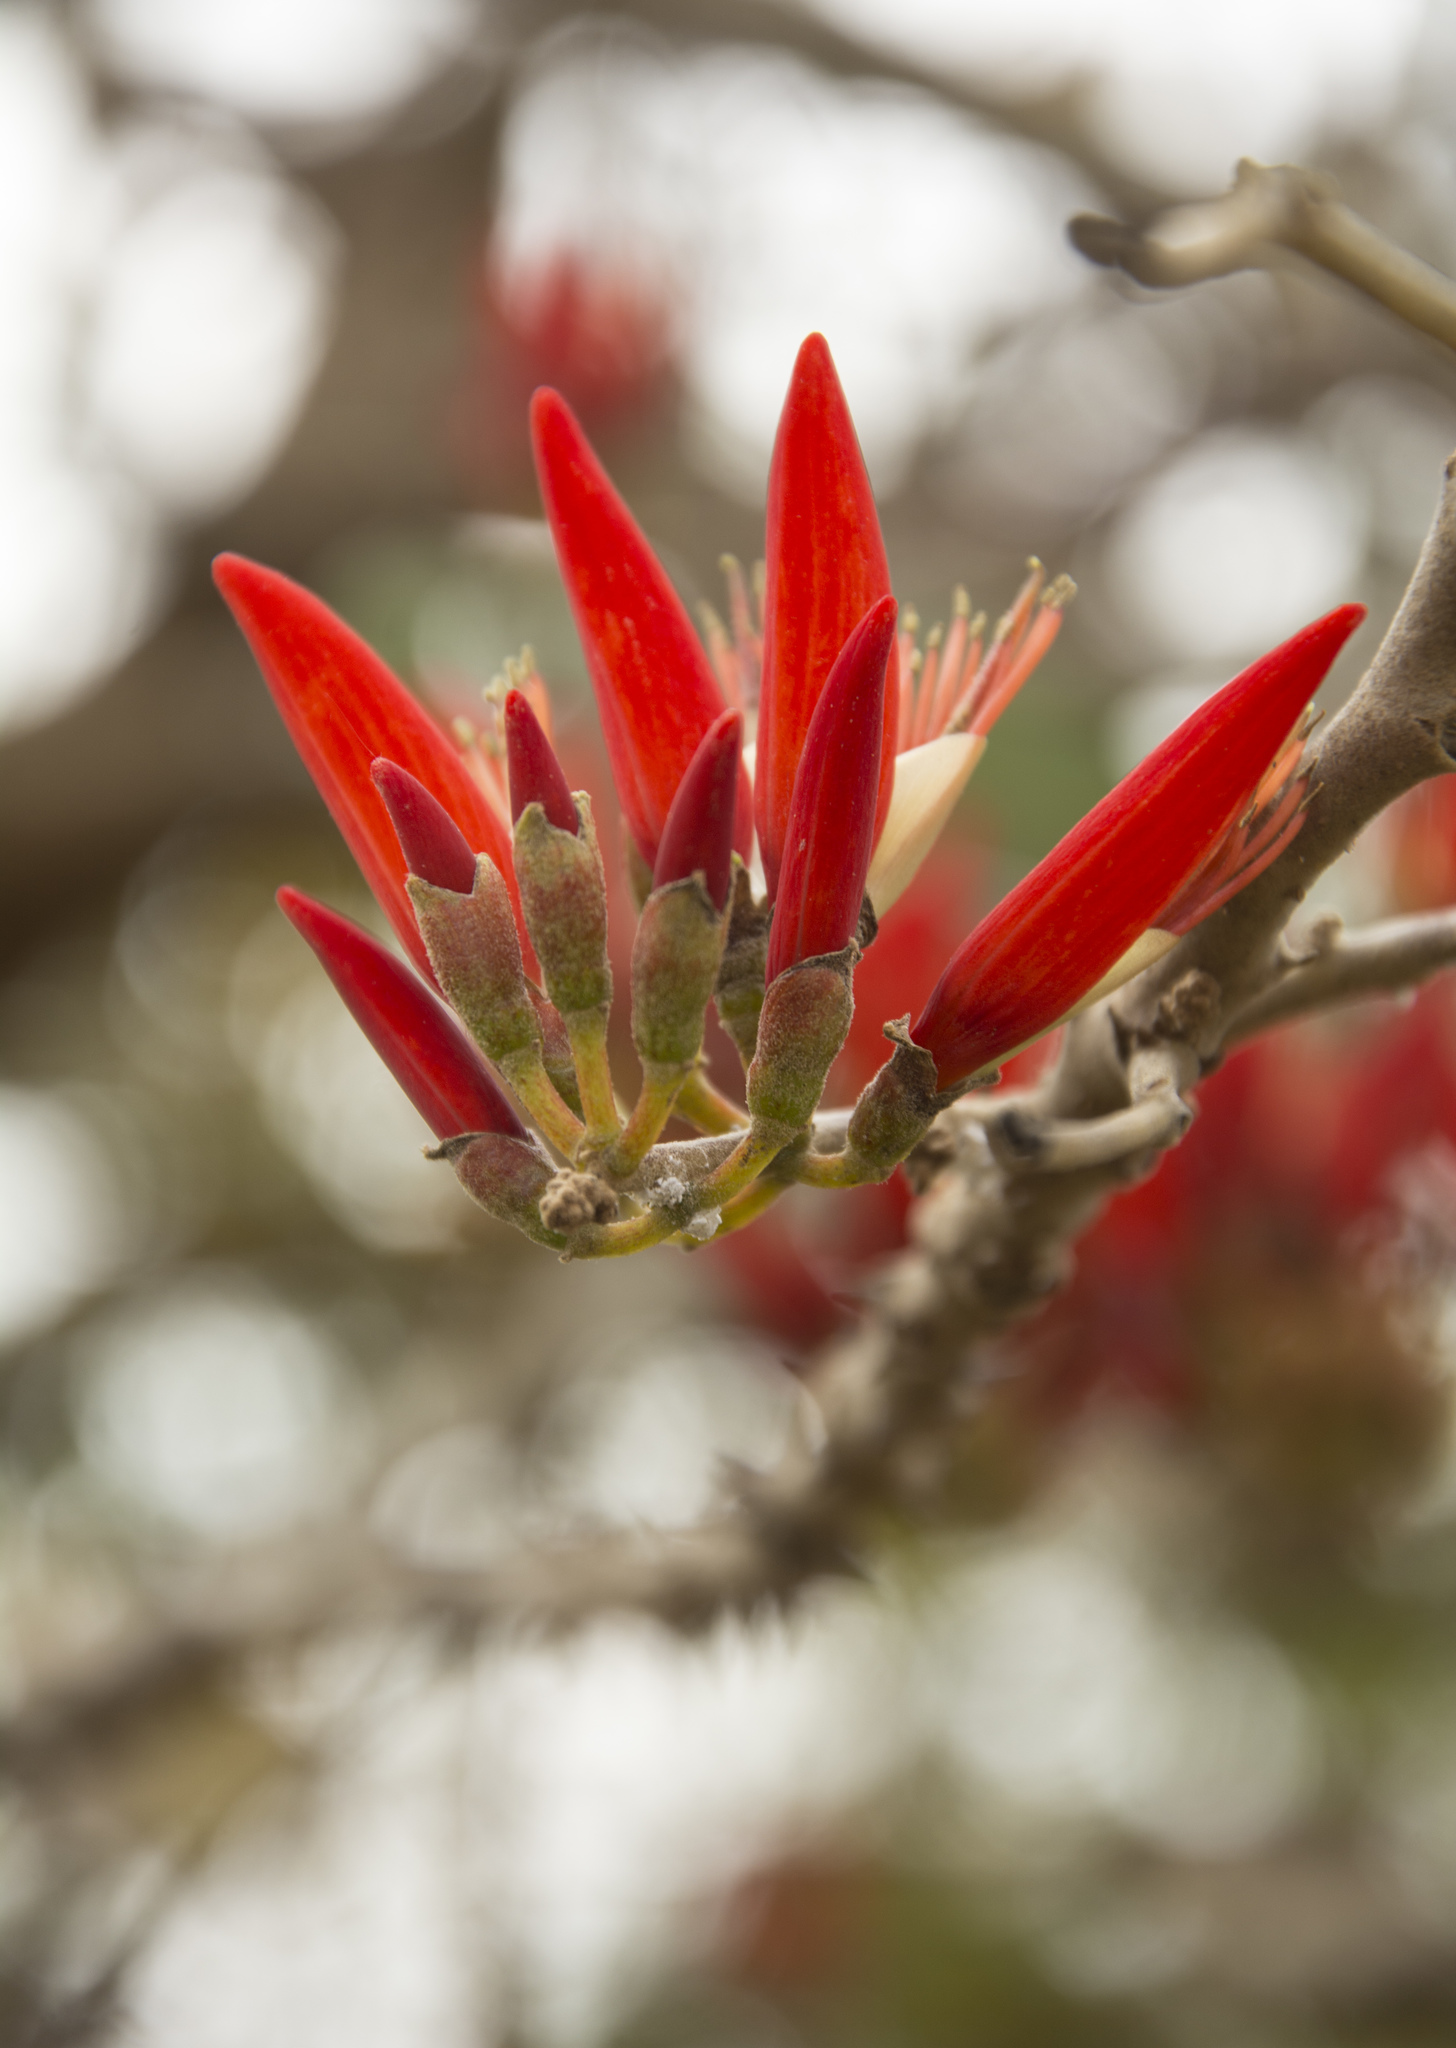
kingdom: Plantae
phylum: Tracheophyta
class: Magnoliopsida
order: Fabales
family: Fabaceae
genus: Erythrina
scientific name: Erythrina suberosa
